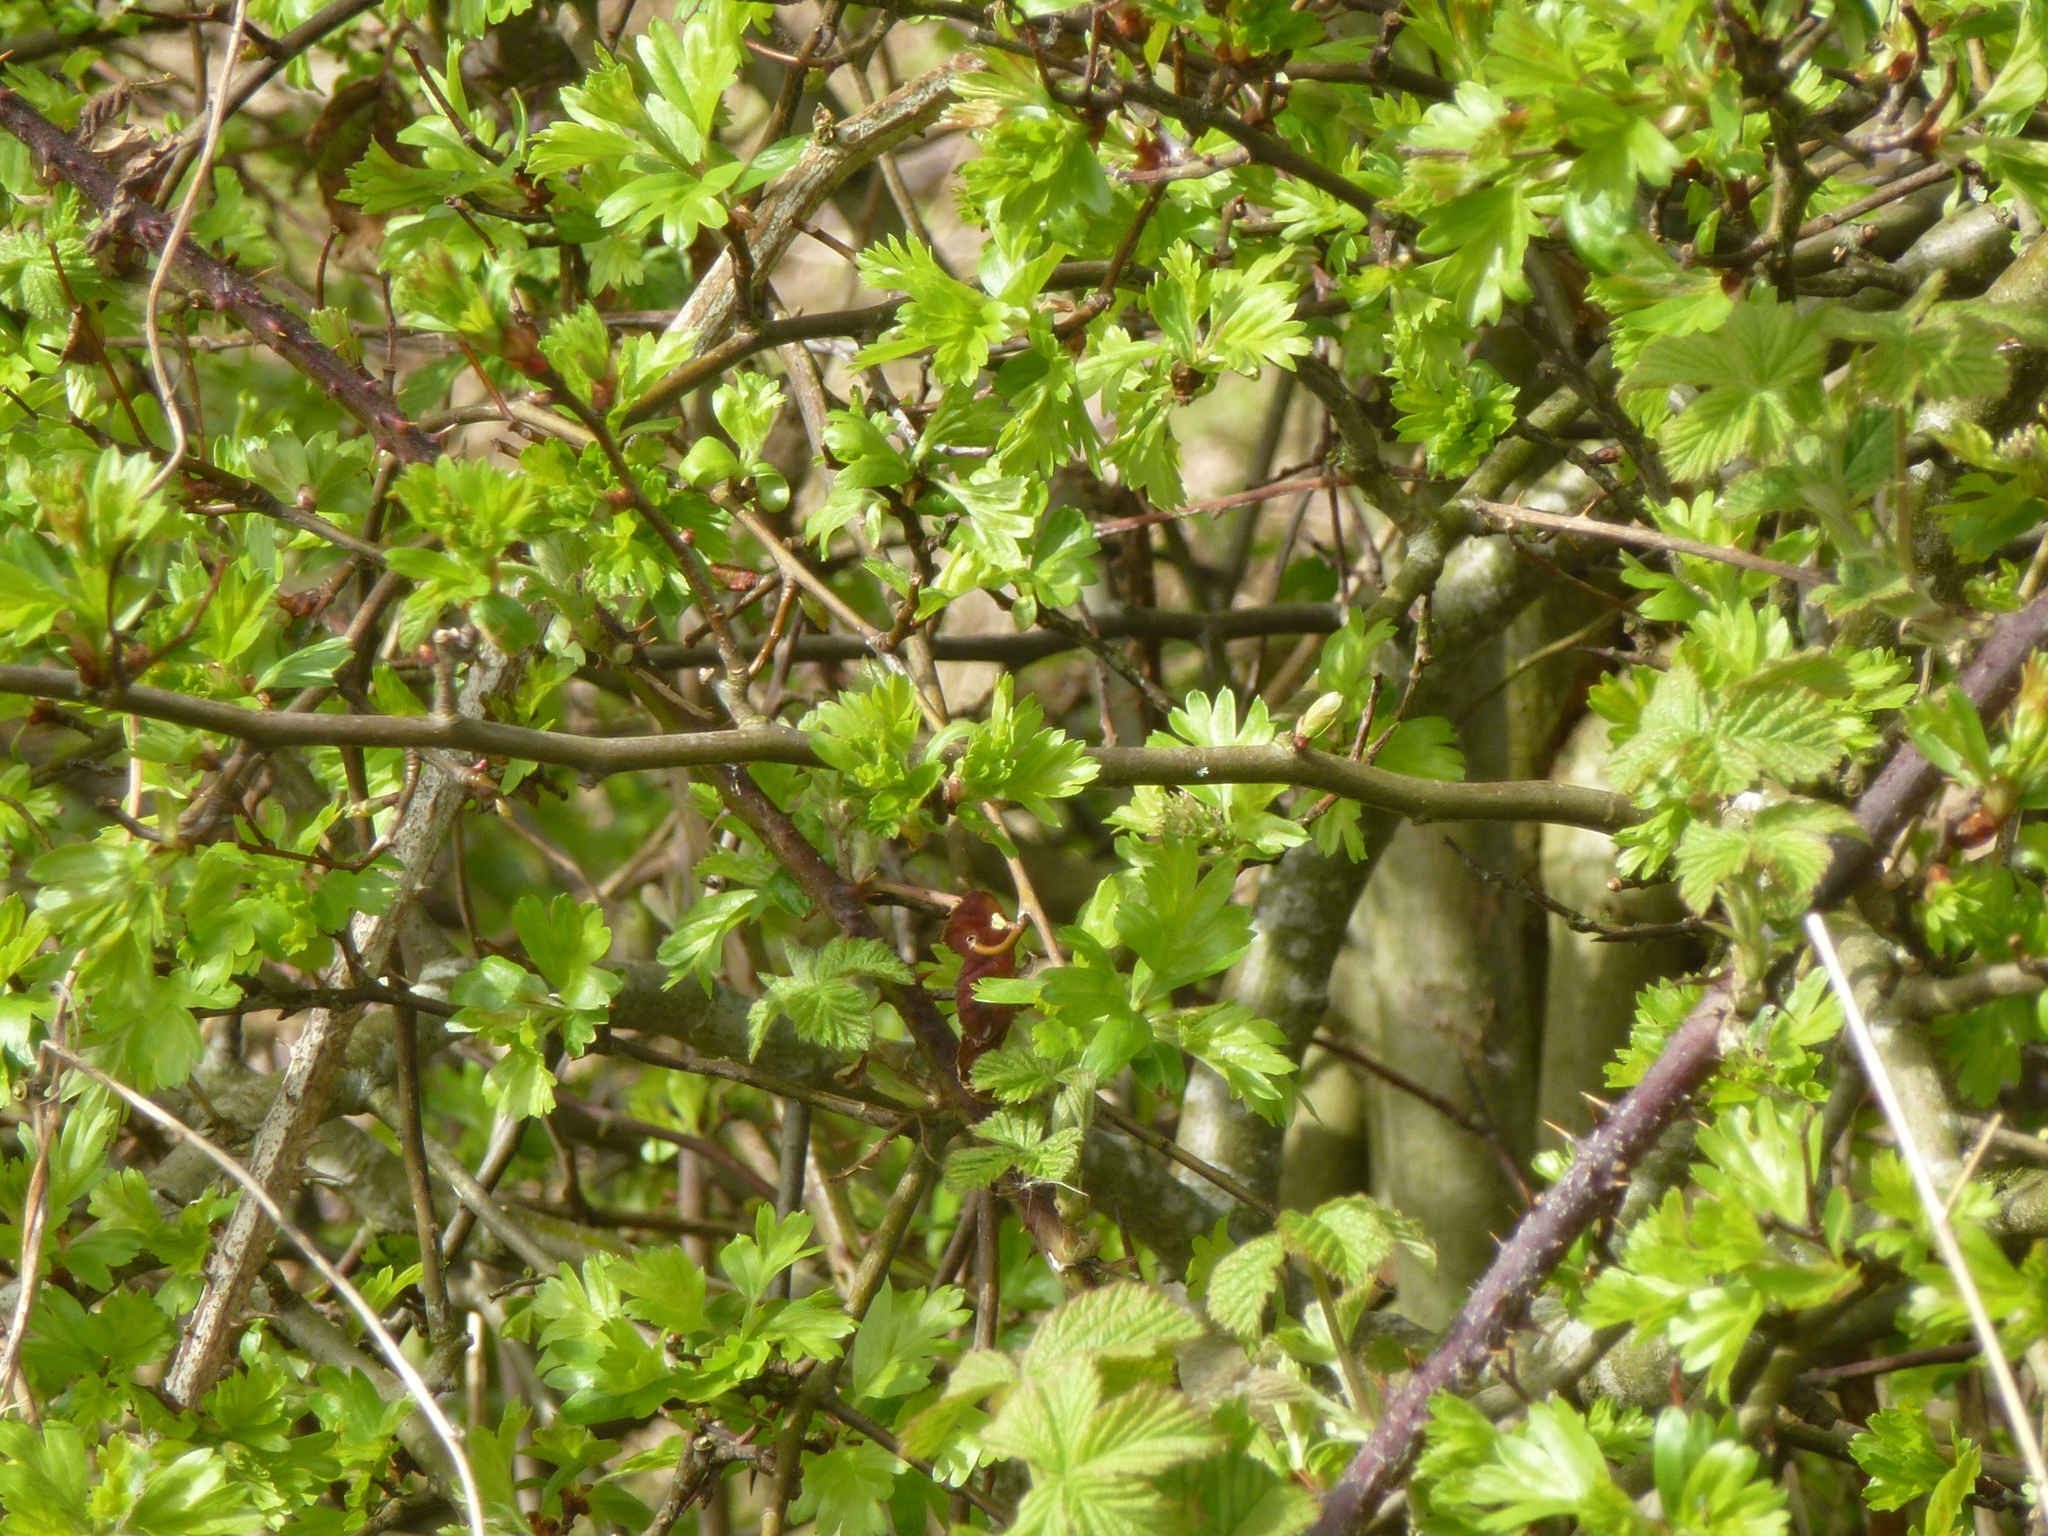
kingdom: Plantae
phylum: Tracheophyta
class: Magnoliopsida
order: Rosales
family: Rosaceae
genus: Crataegus
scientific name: Crataegus monogyna
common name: Hawthorn
